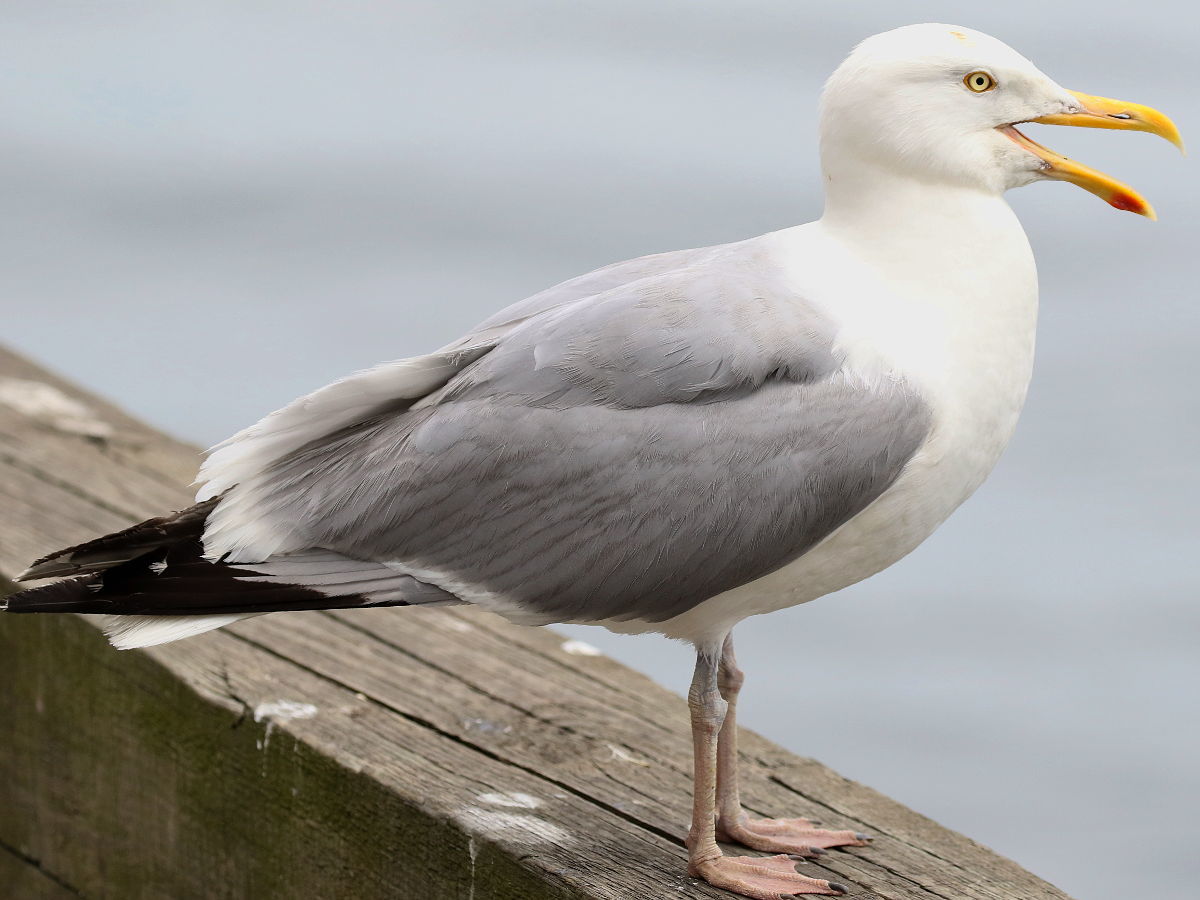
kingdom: Animalia
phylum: Chordata
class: Aves
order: Charadriiformes
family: Laridae
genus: Larus
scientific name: Larus argentatus
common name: Herring gull
